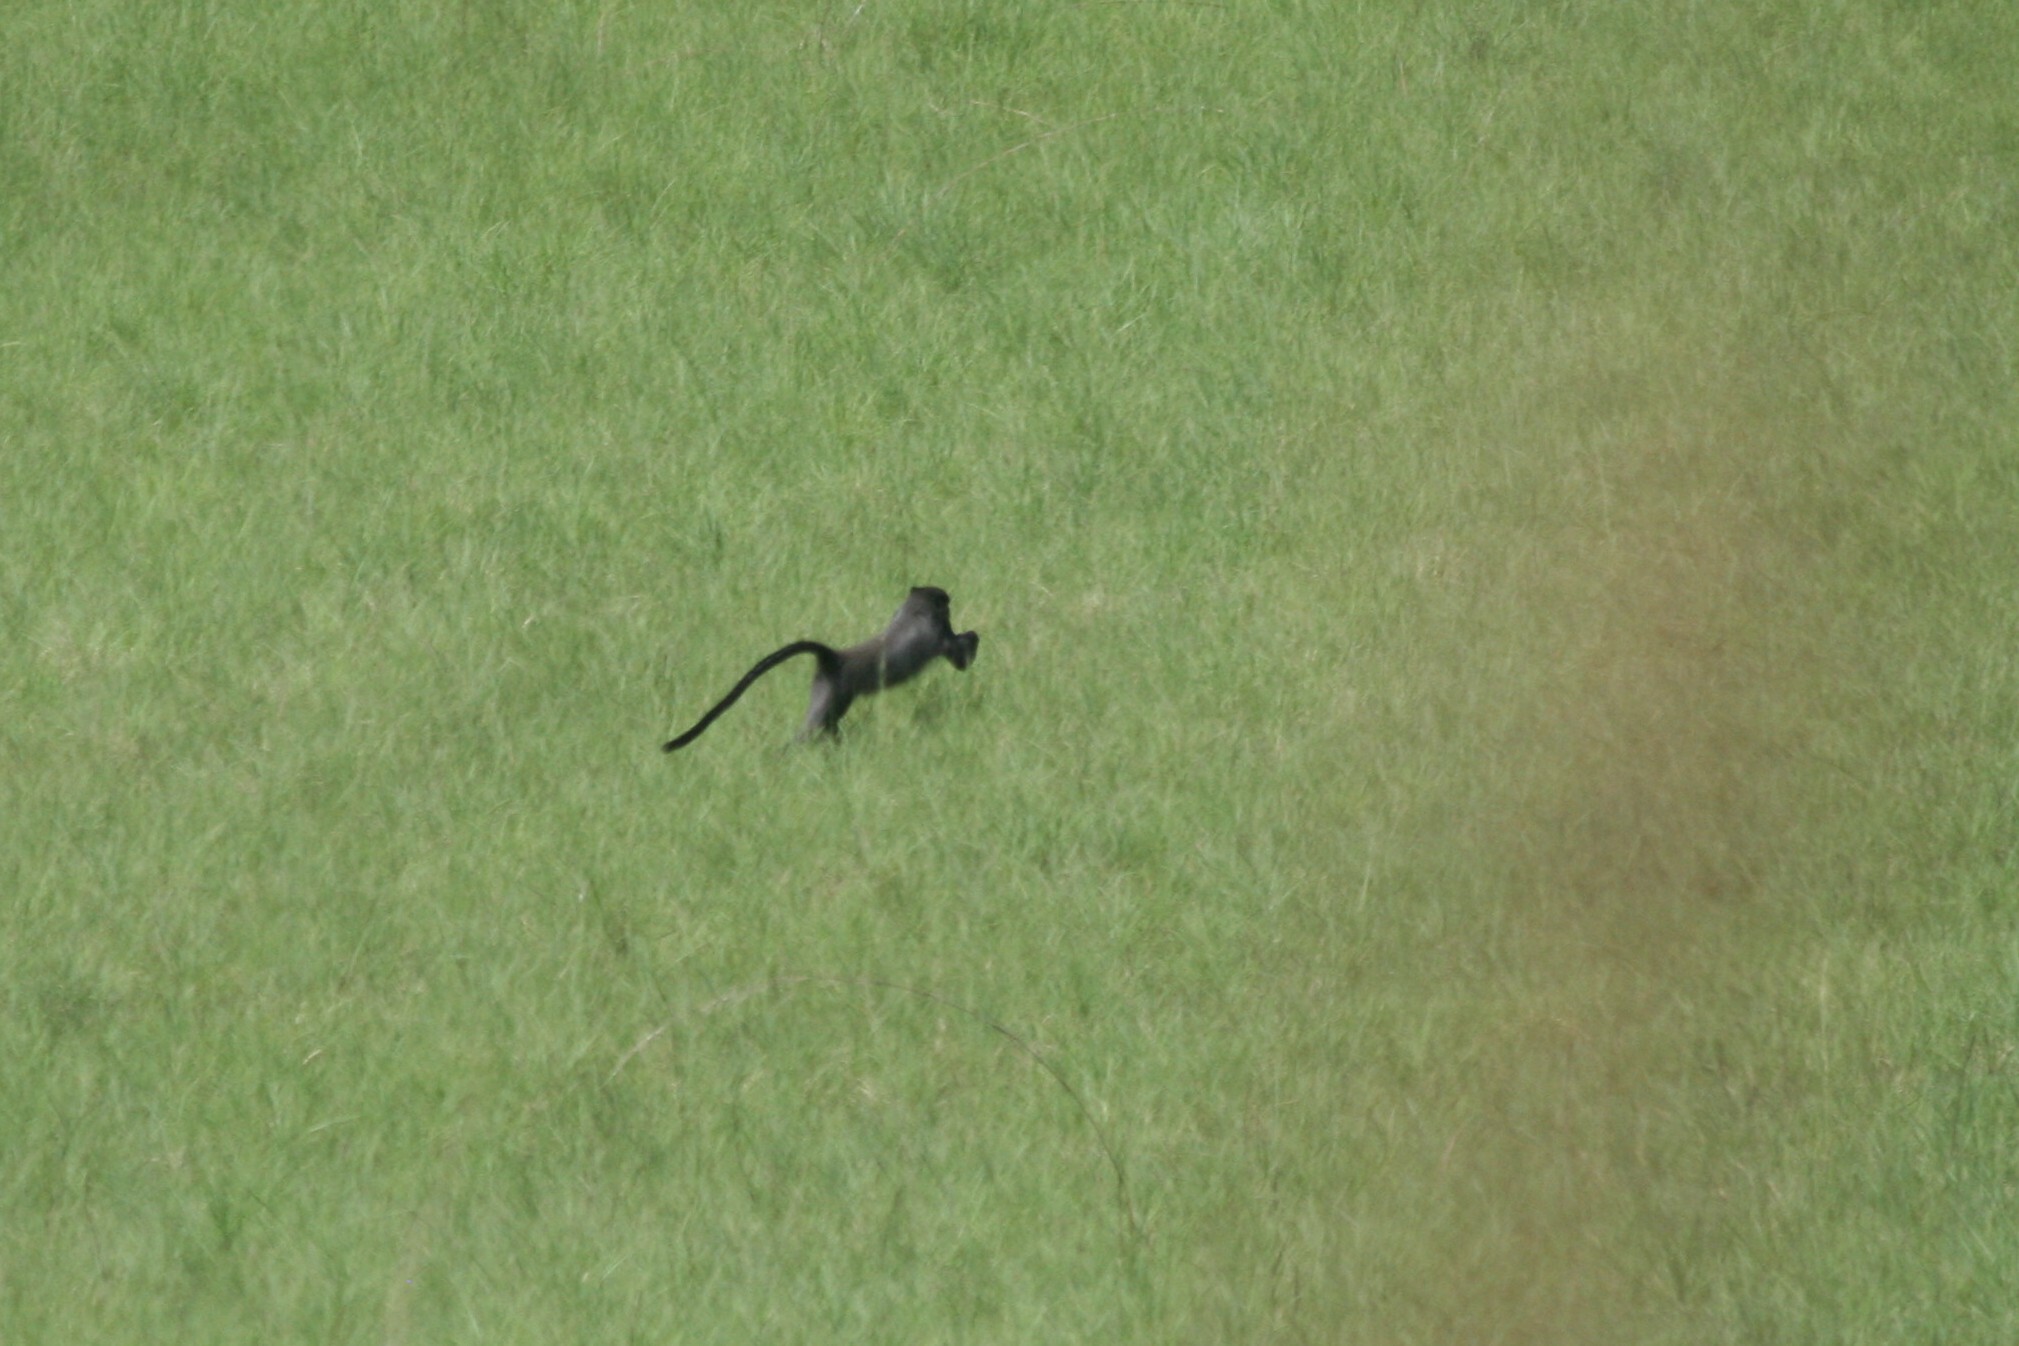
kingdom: Animalia
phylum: Chordata
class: Mammalia
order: Primates
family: Cercopithecidae
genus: Cercopithecus
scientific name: Cercopithecus nictitans
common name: Greater spot-nosed monkey
